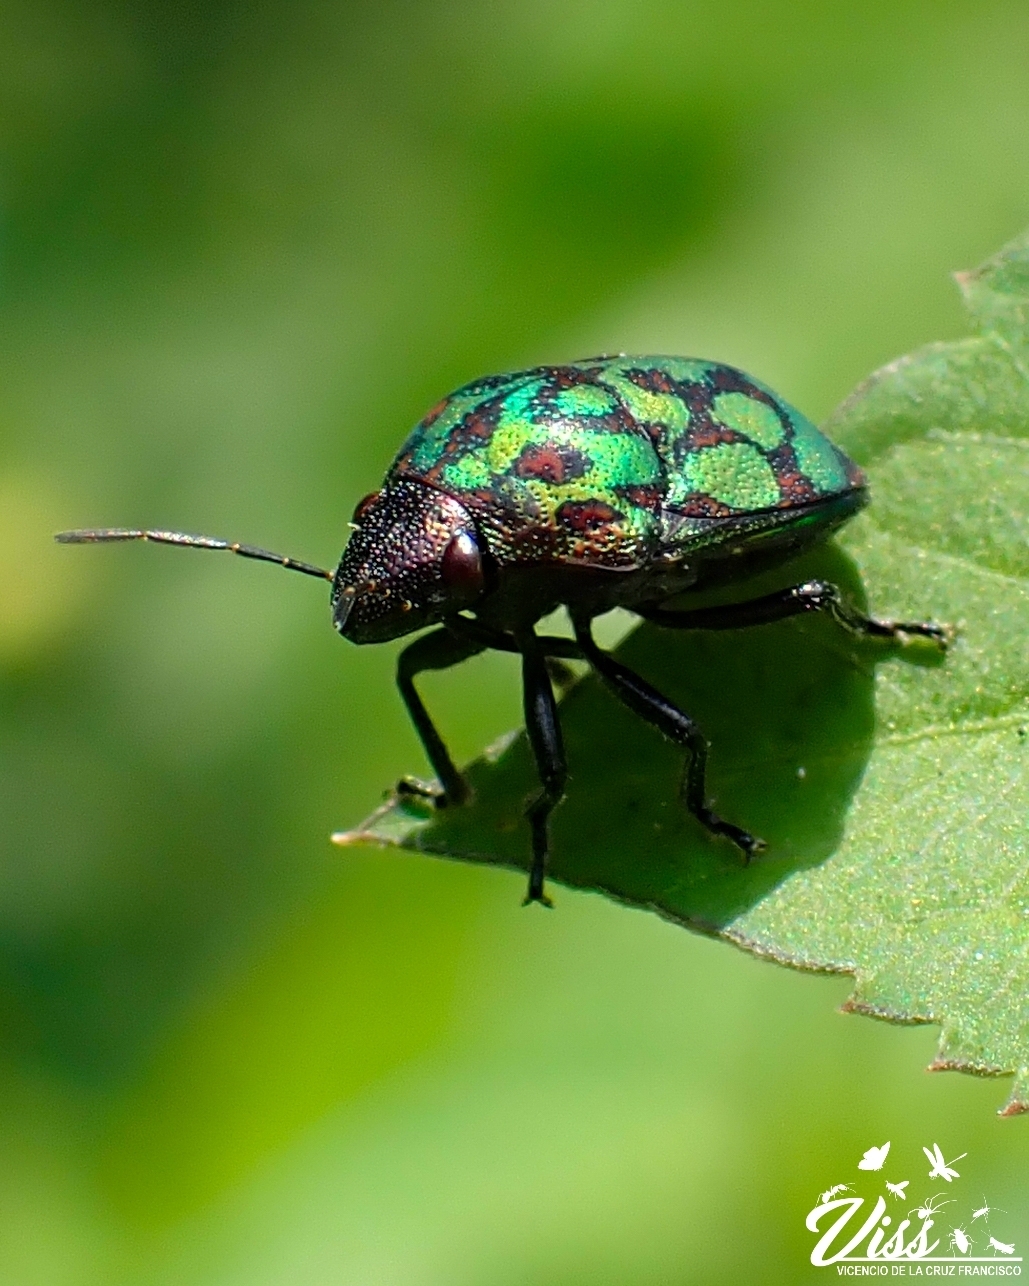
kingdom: Animalia
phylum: Arthropoda
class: Insecta
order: Hemiptera
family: Scutelleridae
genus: Orsilochides
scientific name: Orsilochides variabilis
